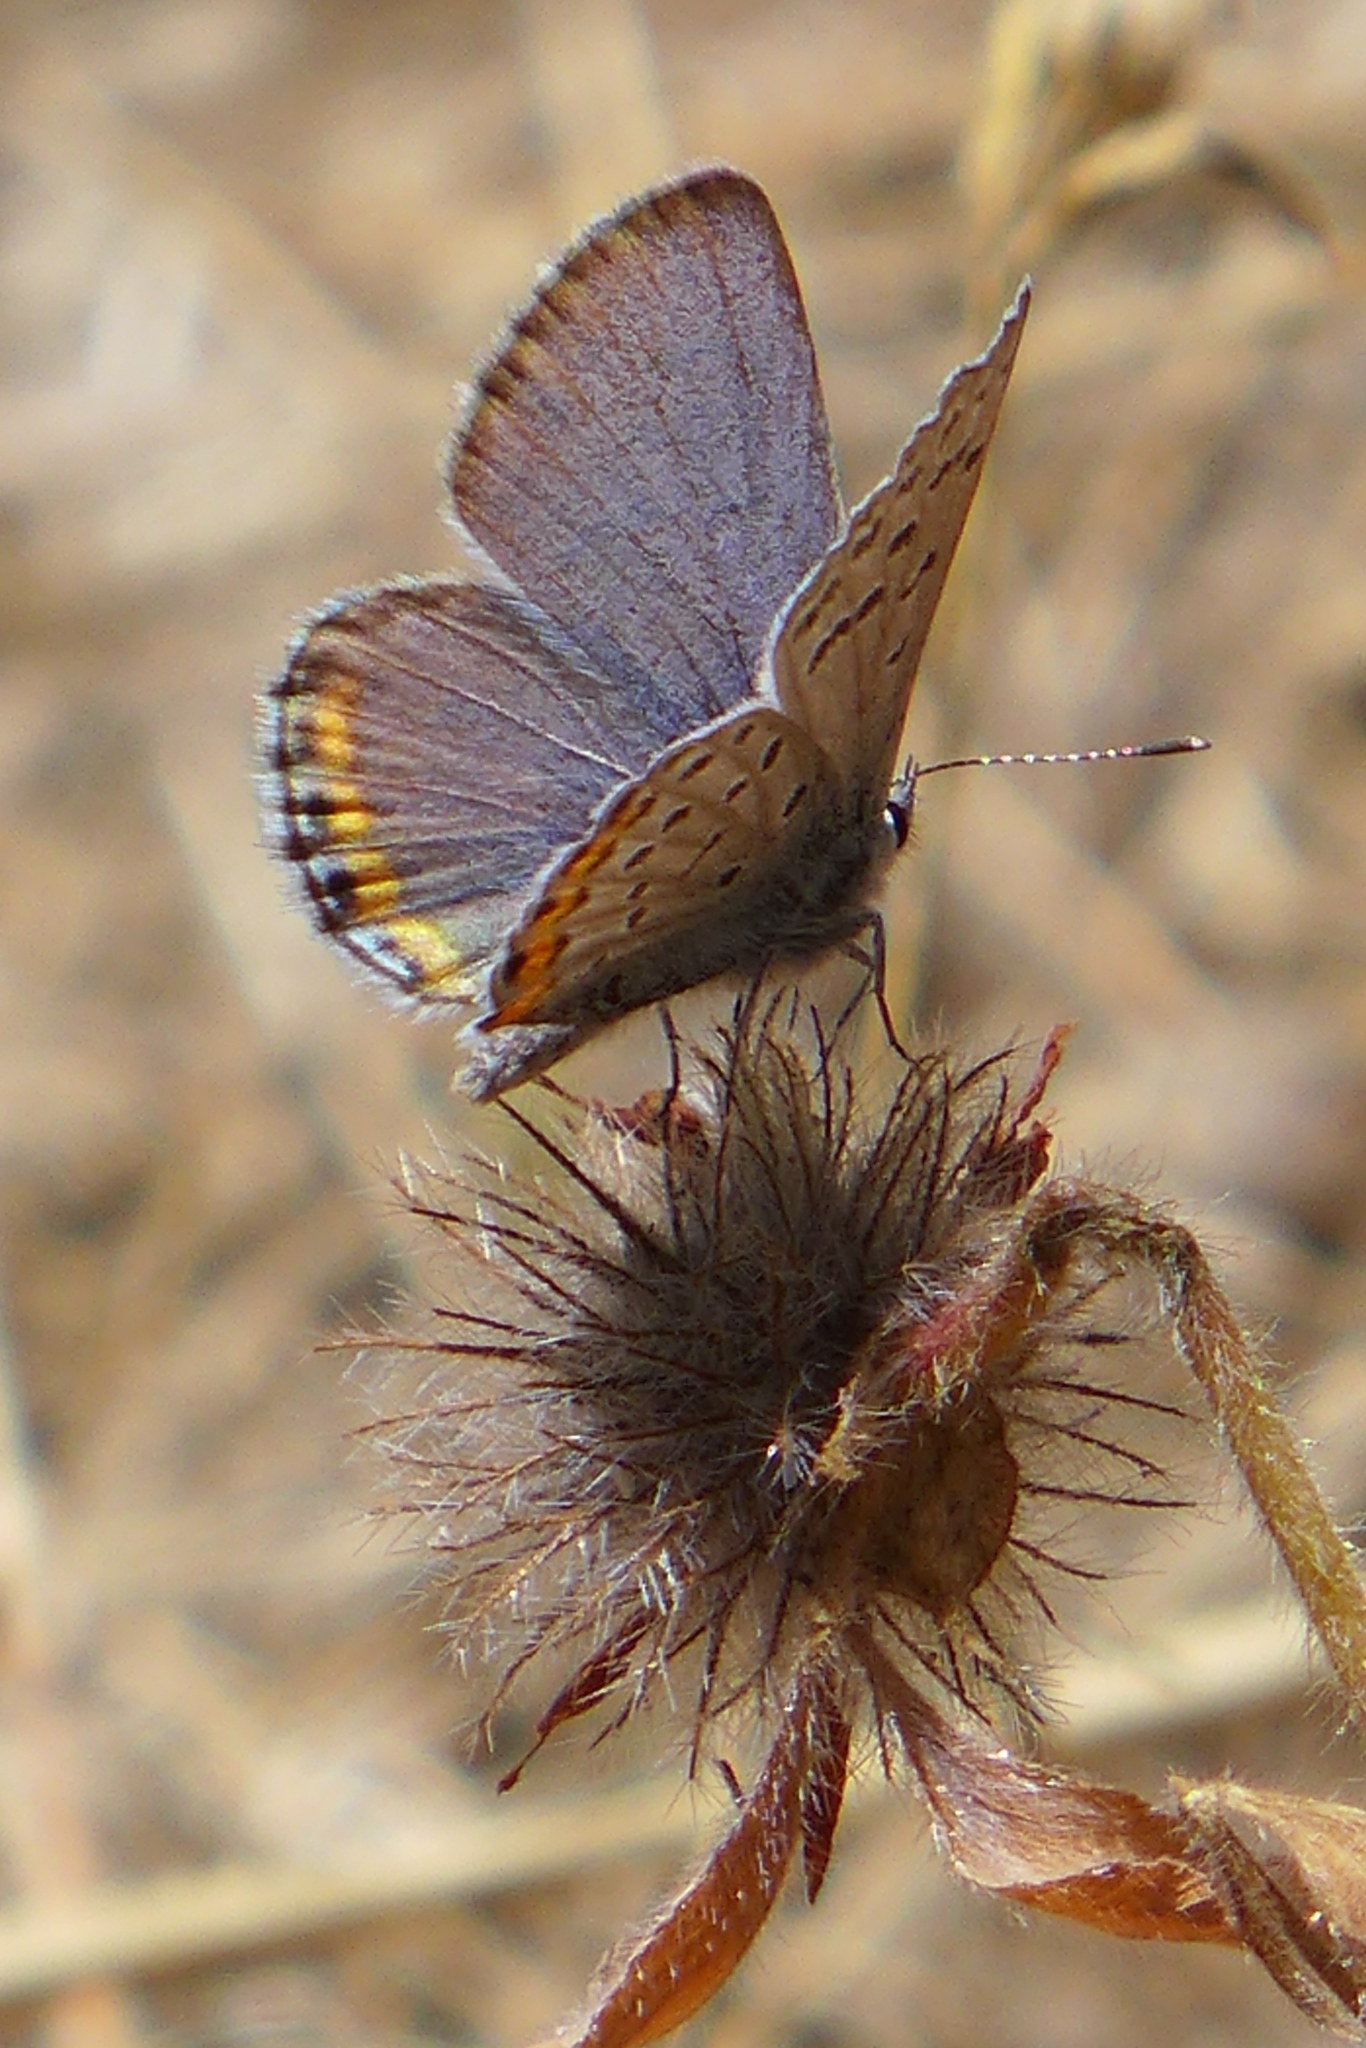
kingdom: Animalia
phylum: Arthropoda
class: Insecta
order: Lepidoptera
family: Lycaenidae
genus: Icaricia
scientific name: Icaricia acmon
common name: Acmon blue
